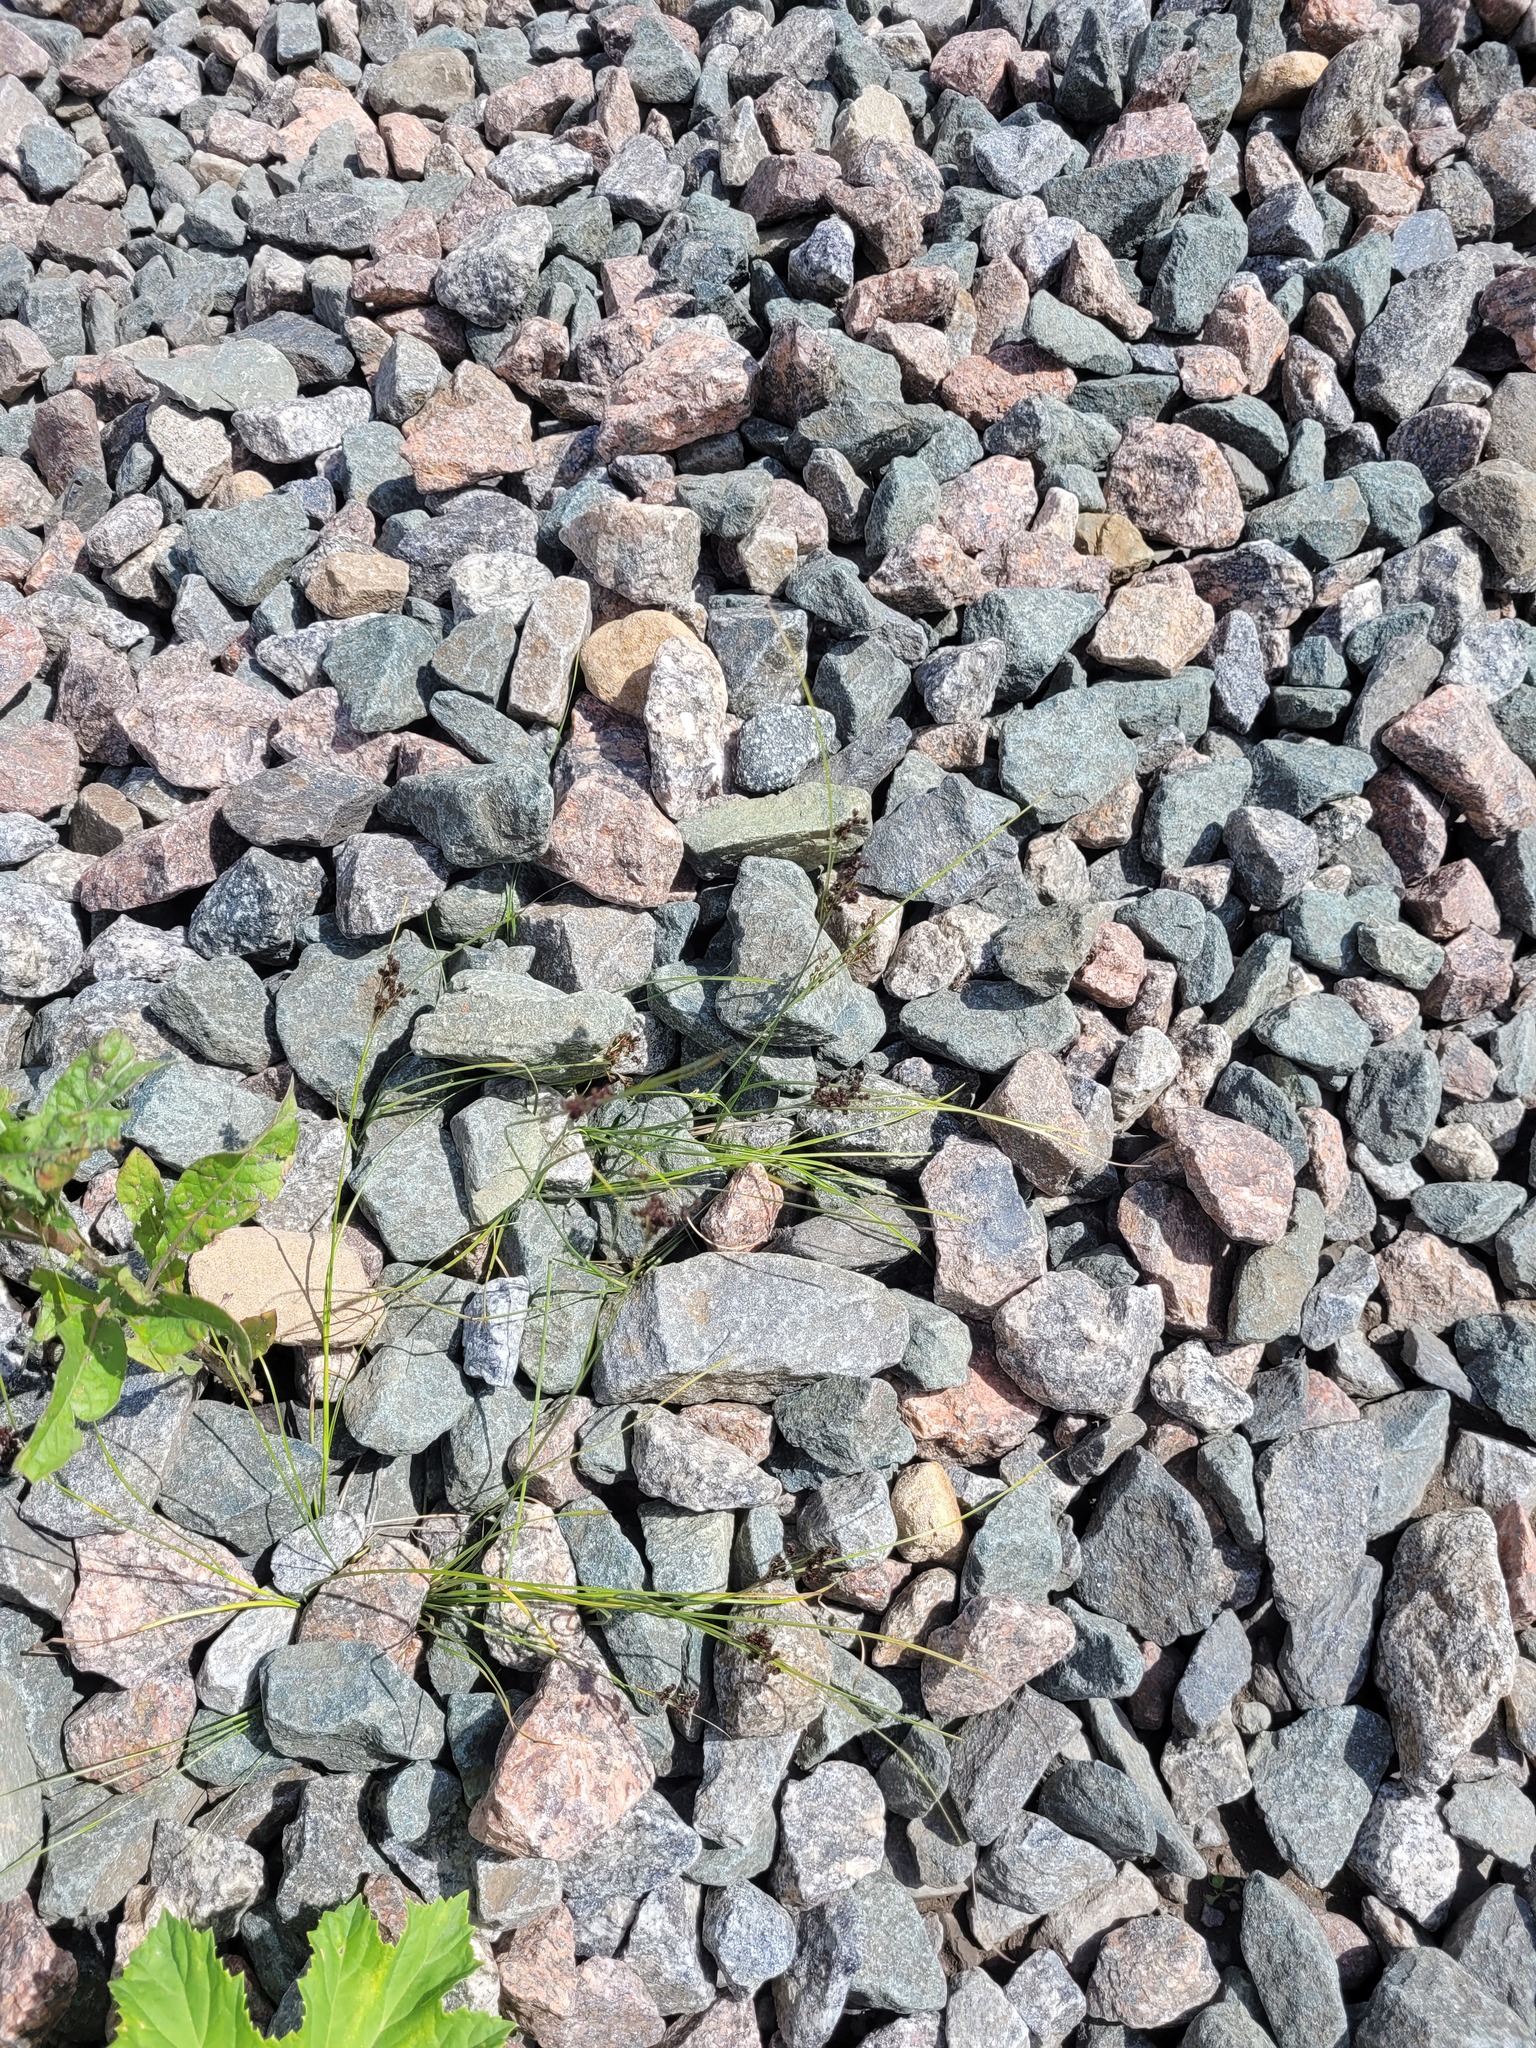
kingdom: Plantae
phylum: Tracheophyta
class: Liliopsida
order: Poales
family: Juncaceae
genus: Juncus
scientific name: Juncus compressus
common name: Round-fruited rush
